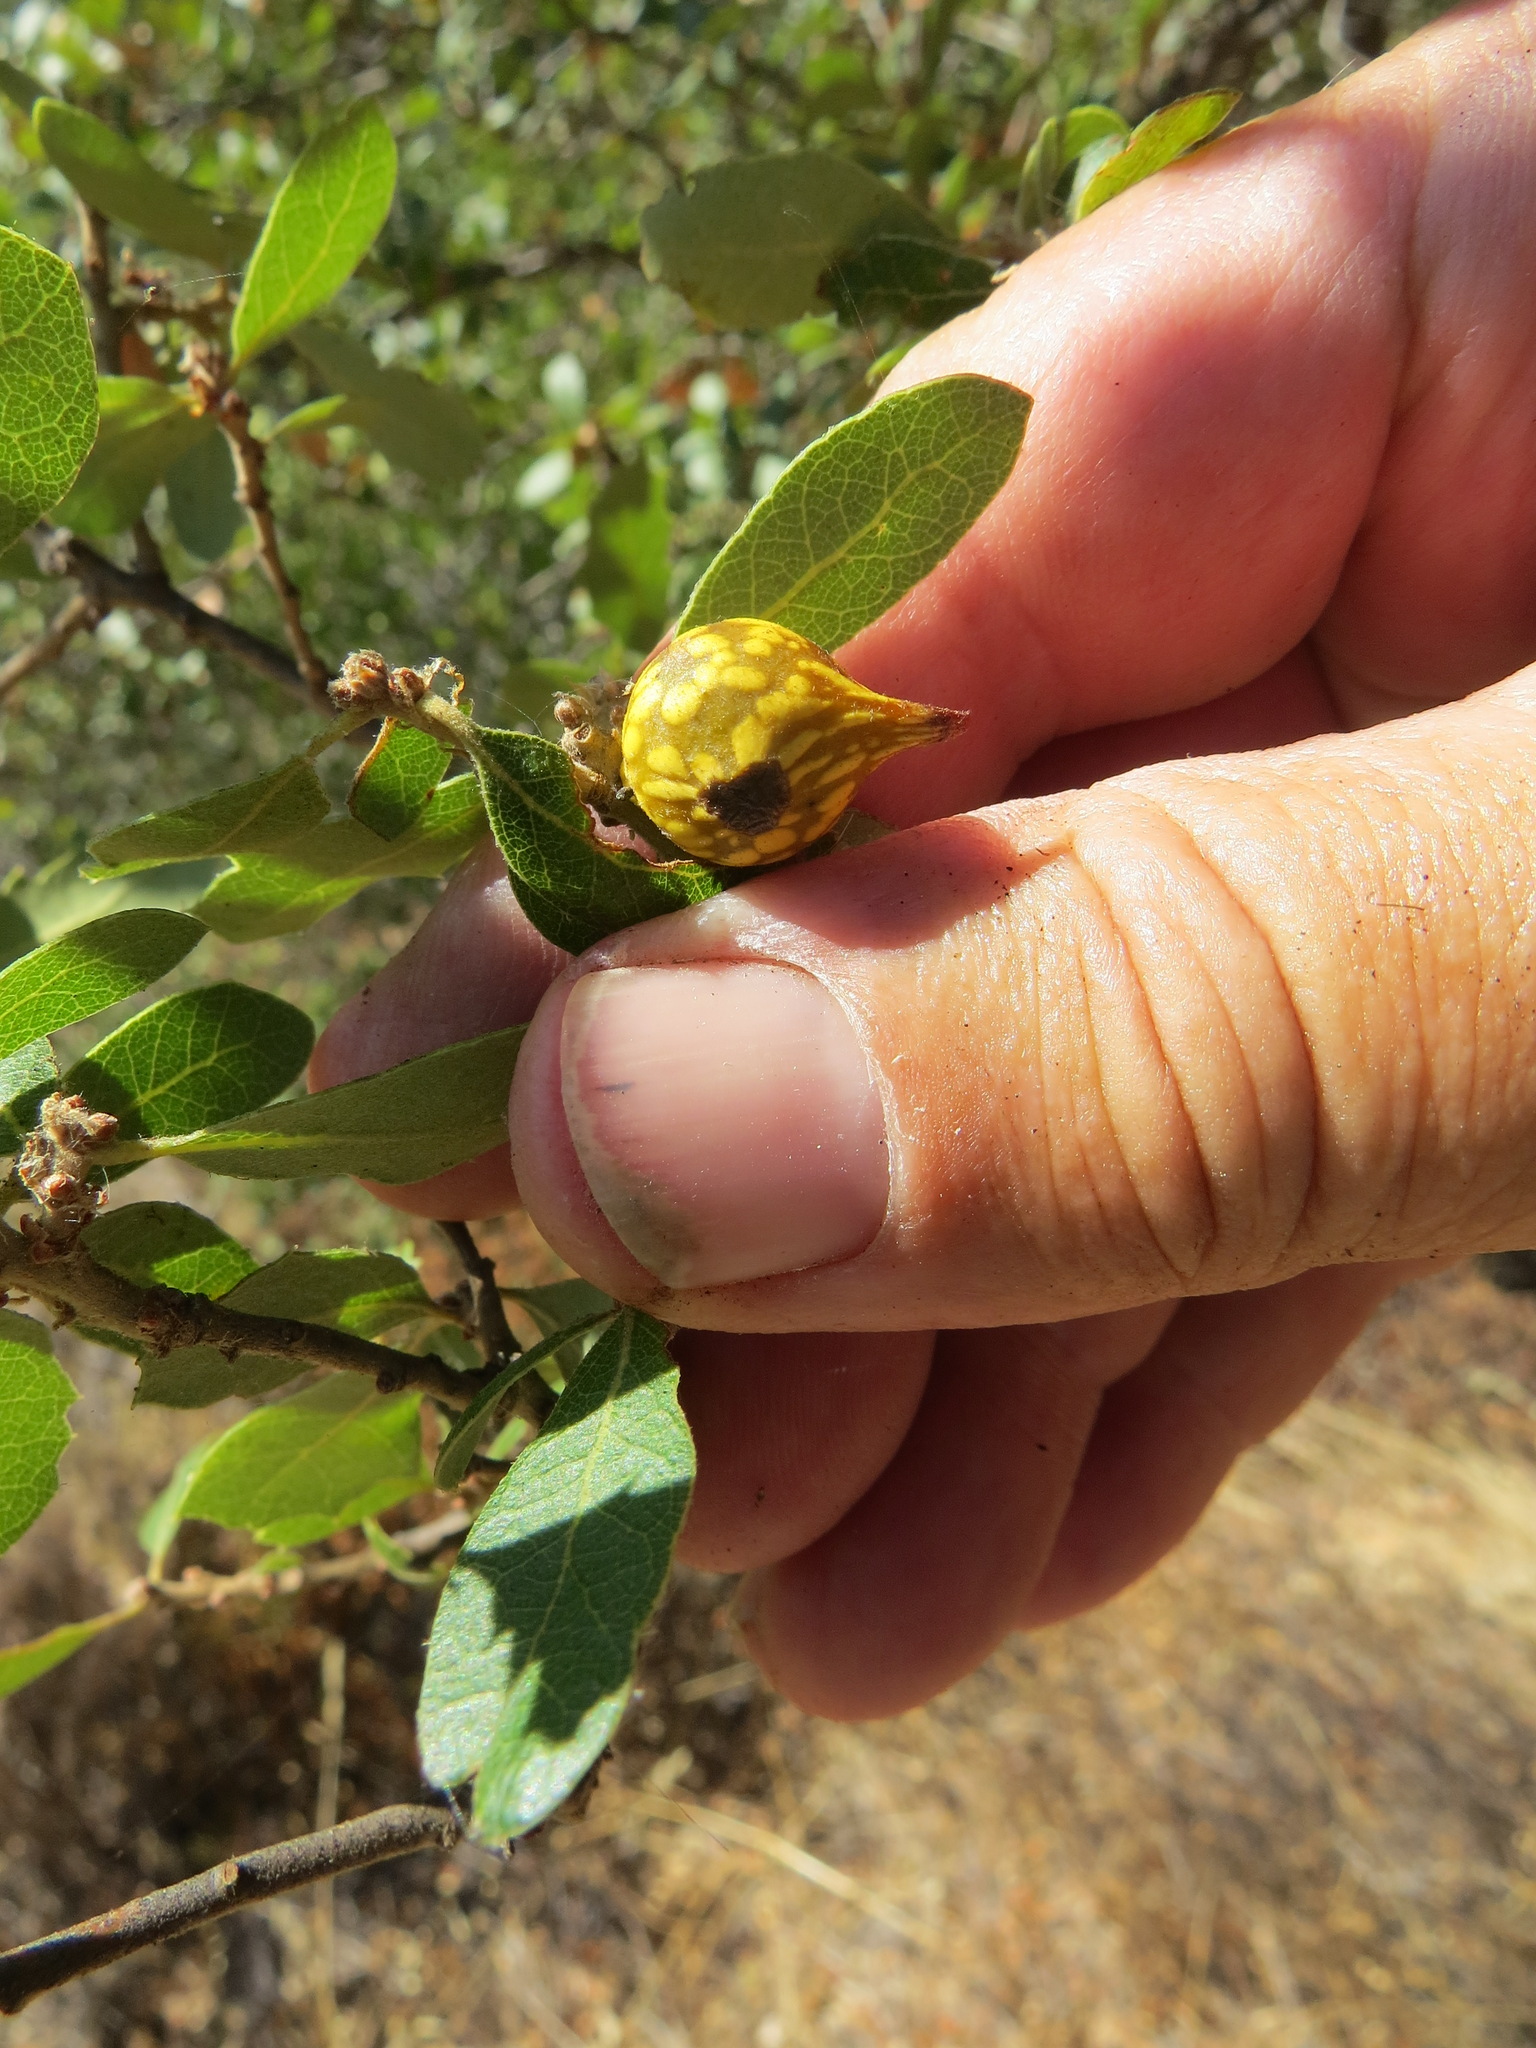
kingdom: Animalia
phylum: Arthropoda
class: Insecta
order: Hymenoptera
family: Cynipidae
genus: Burnettweldia
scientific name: Burnettweldia
